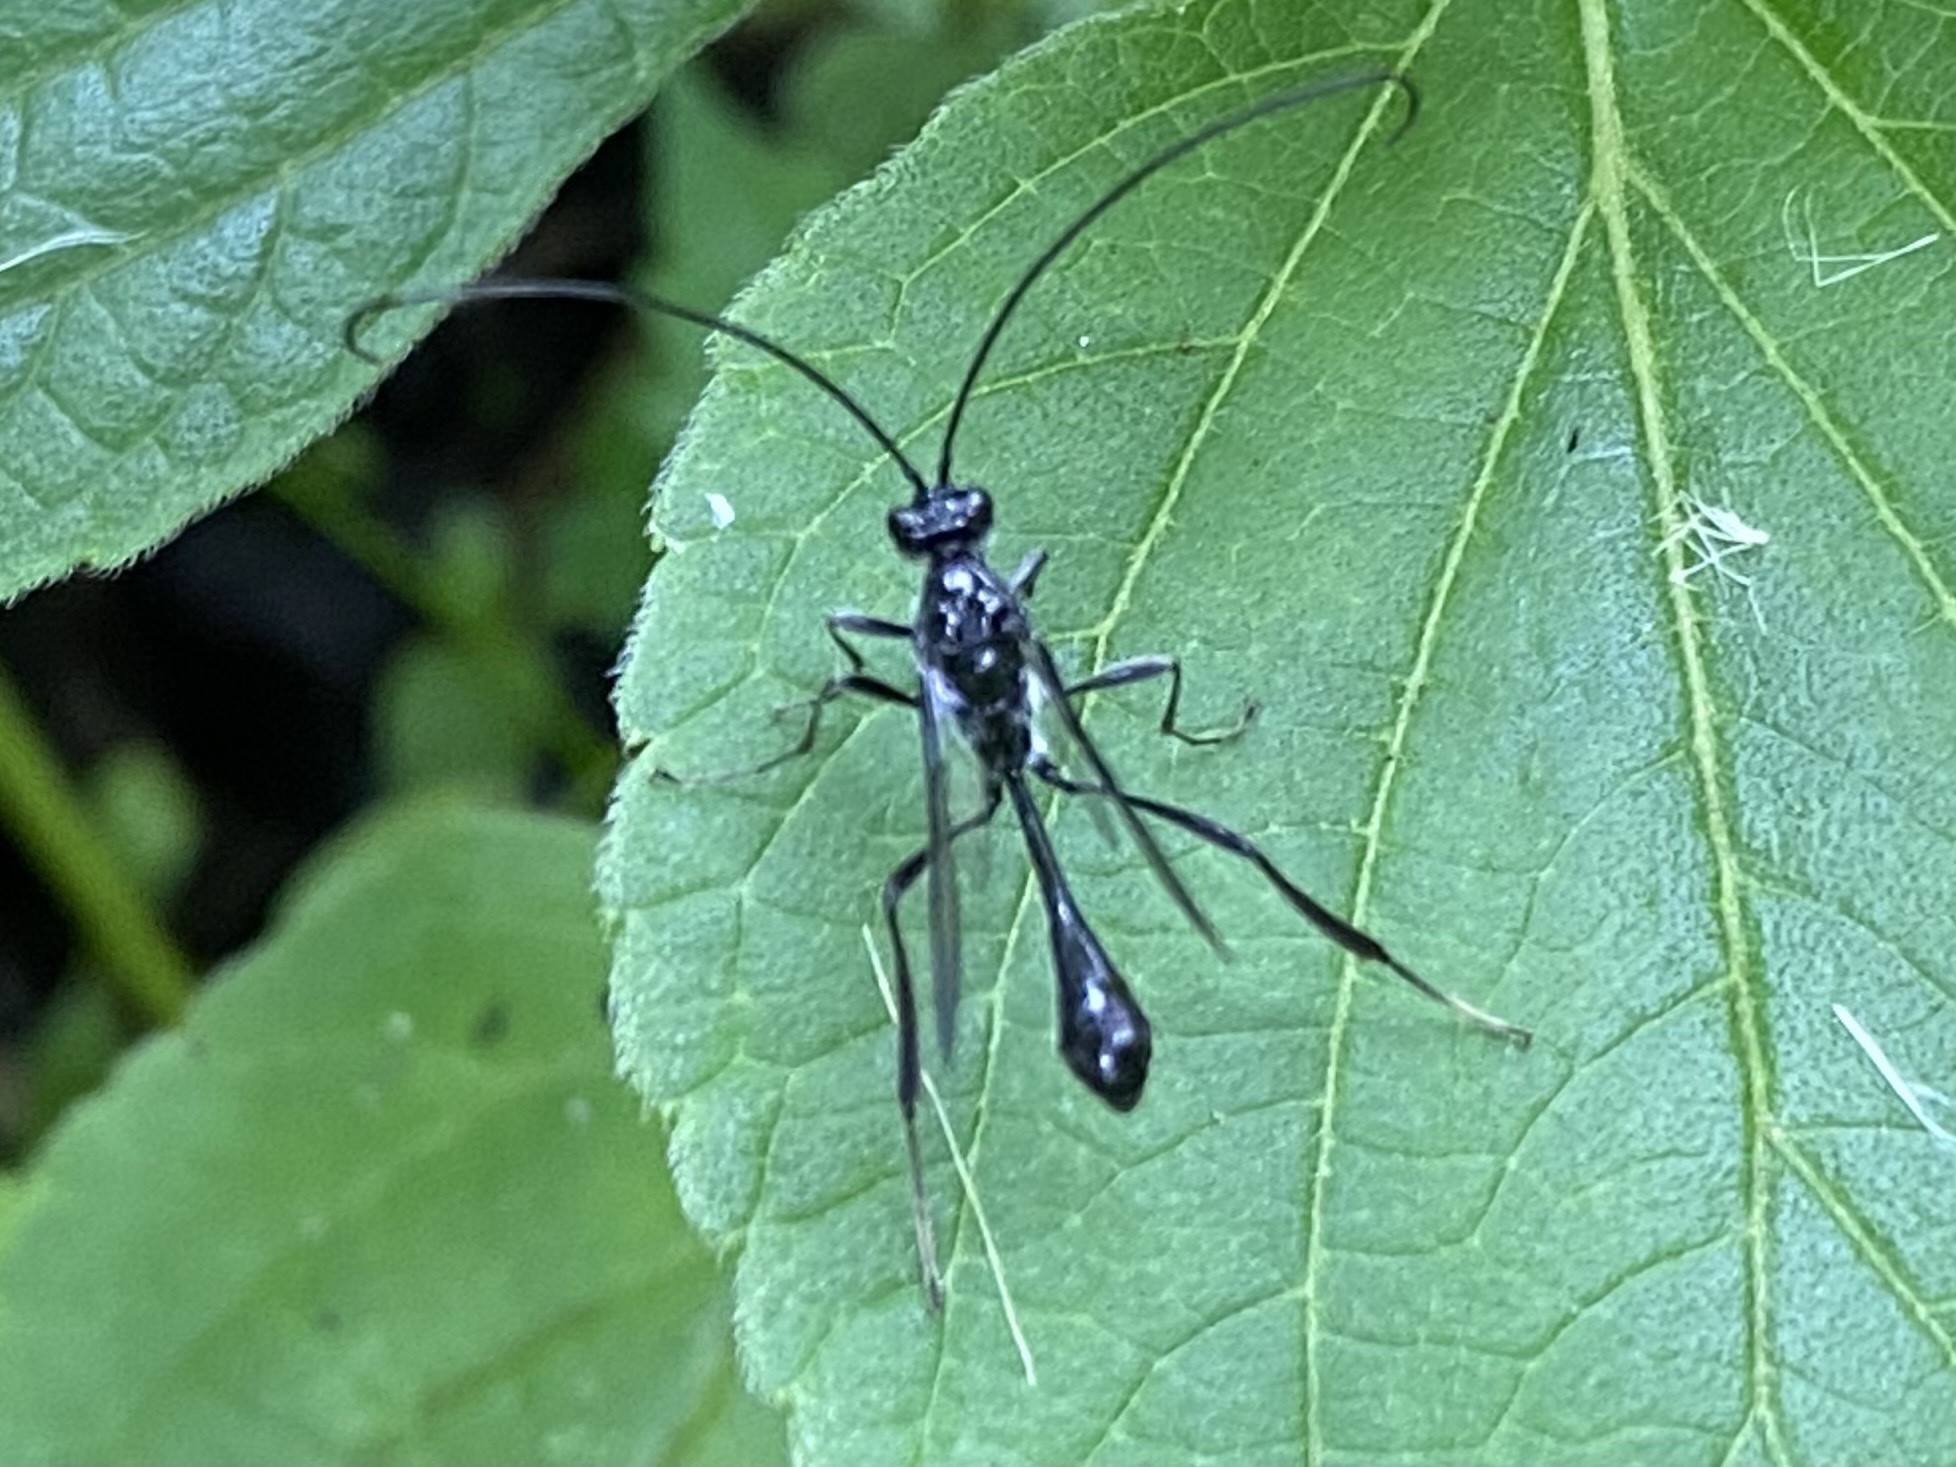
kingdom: Animalia
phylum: Arthropoda
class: Insecta
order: Hymenoptera
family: Pelecinidae
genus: Pelecinus
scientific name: Pelecinus polyturator
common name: American pelecinid wasp
